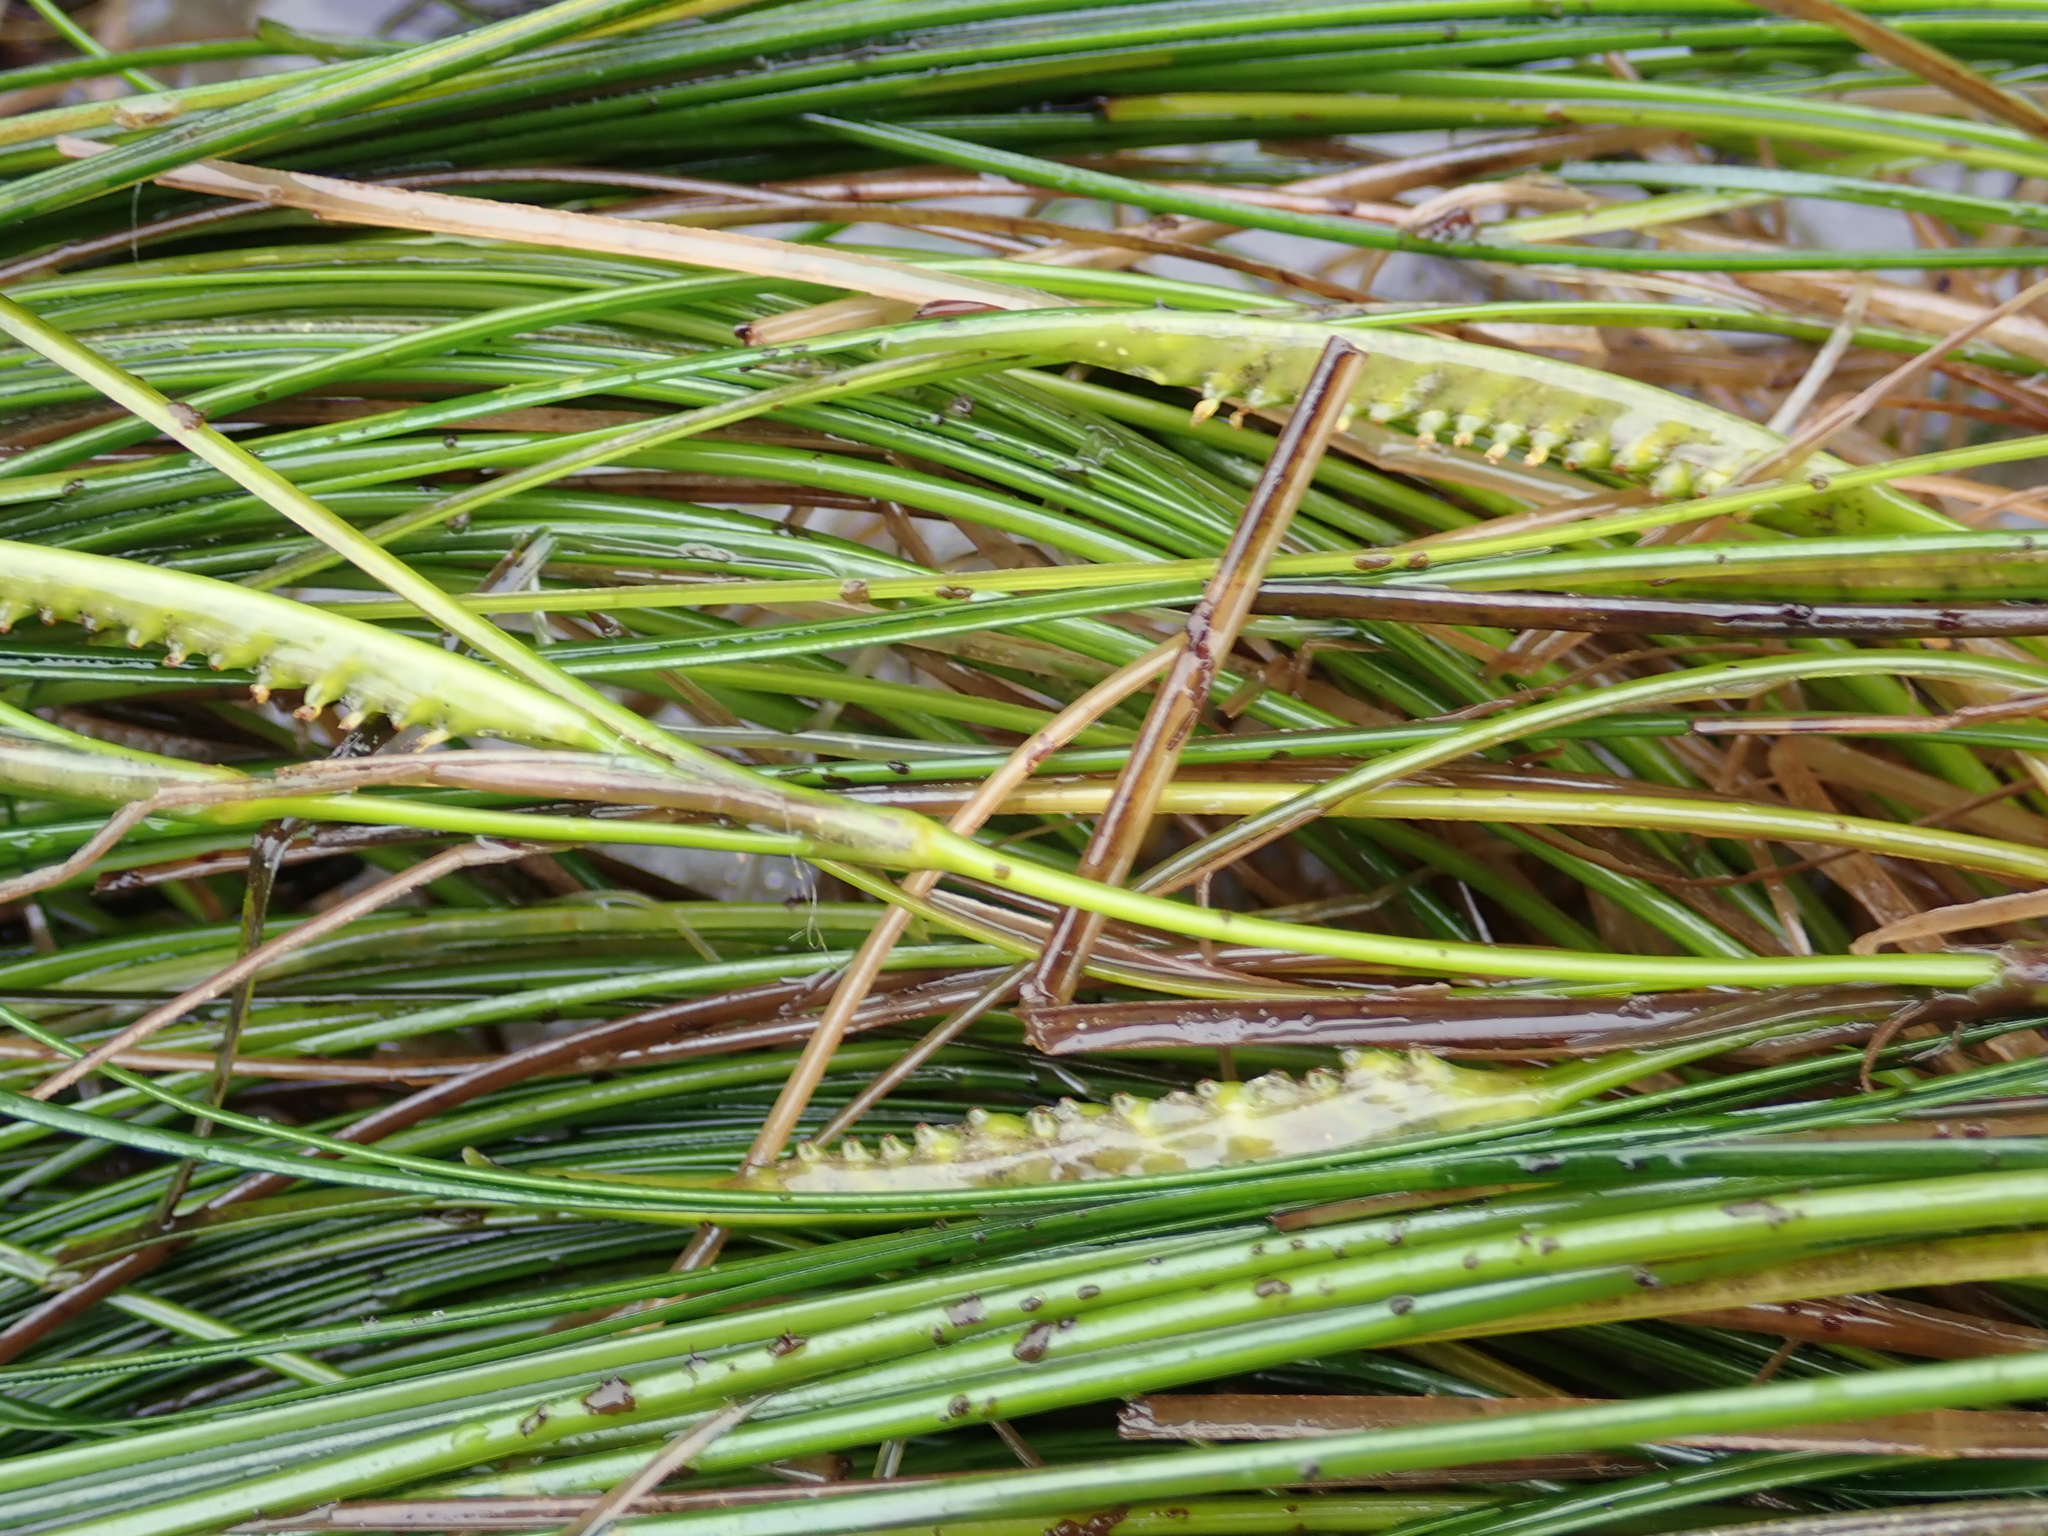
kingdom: Plantae
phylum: Tracheophyta
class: Liliopsida
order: Alismatales
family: Zosteraceae
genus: Phyllospadix
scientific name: Phyllospadix torreyi
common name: Surfgrass
